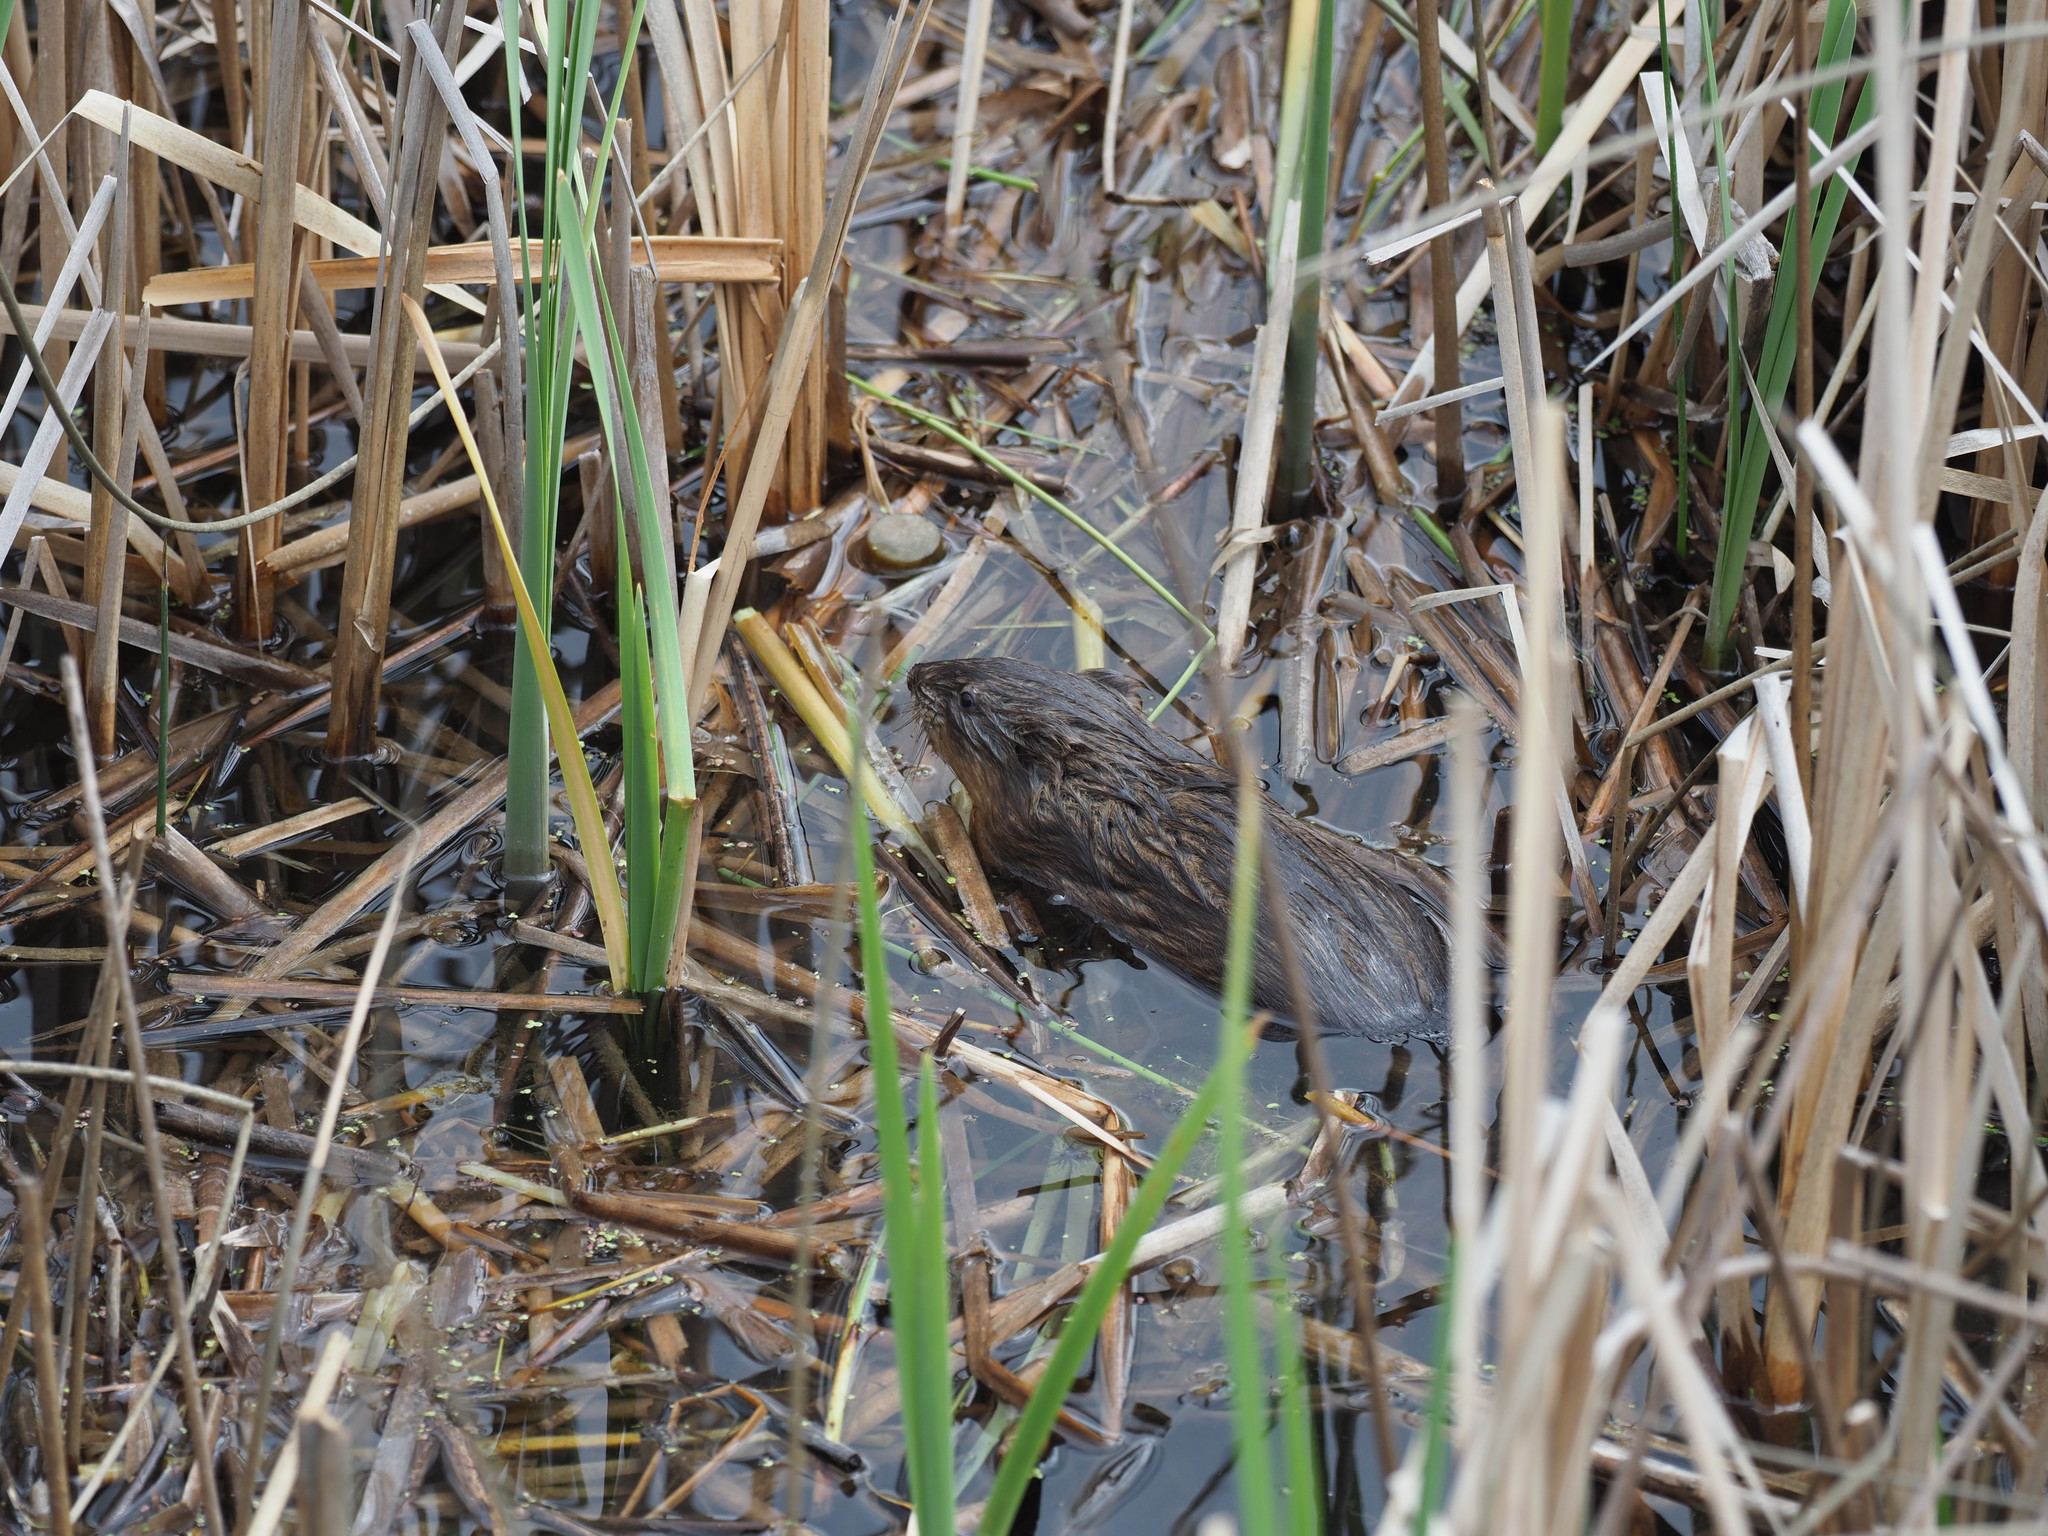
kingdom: Animalia
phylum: Chordata
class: Mammalia
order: Rodentia
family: Cricetidae
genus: Ondatra
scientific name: Ondatra zibethicus
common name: Muskrat
